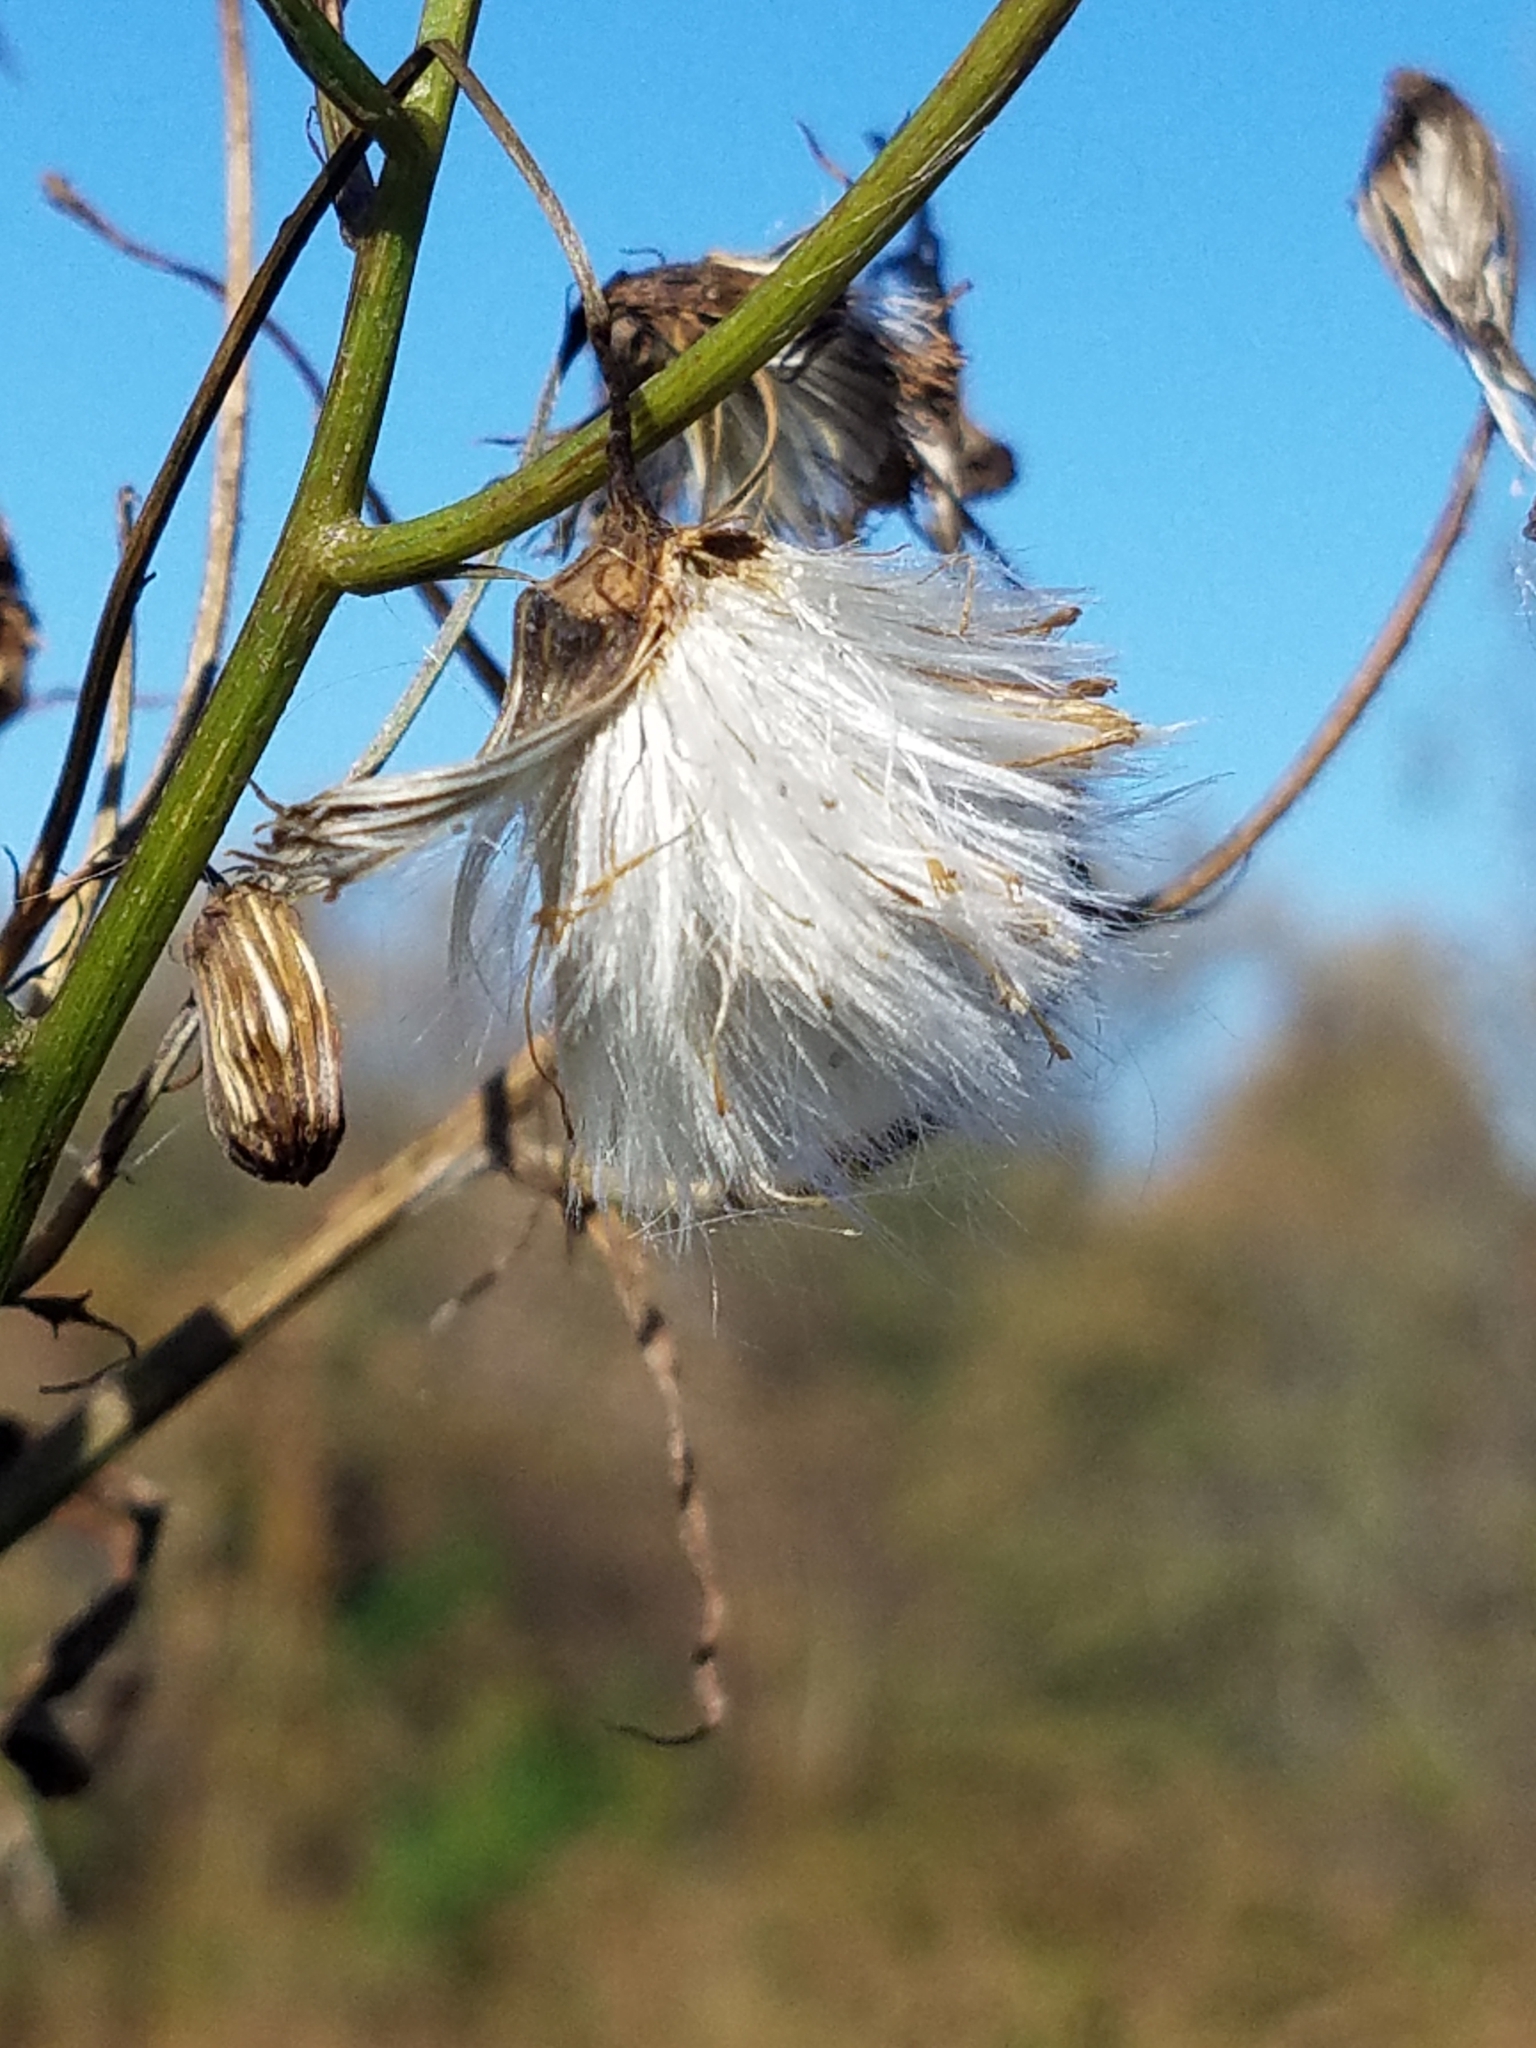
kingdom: Plantae
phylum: Tracheophyta
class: Magnoliopsida
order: Asterales
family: Asteraceae
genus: Erechtites
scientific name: Erechtites hieraciifolius
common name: American burnweed
